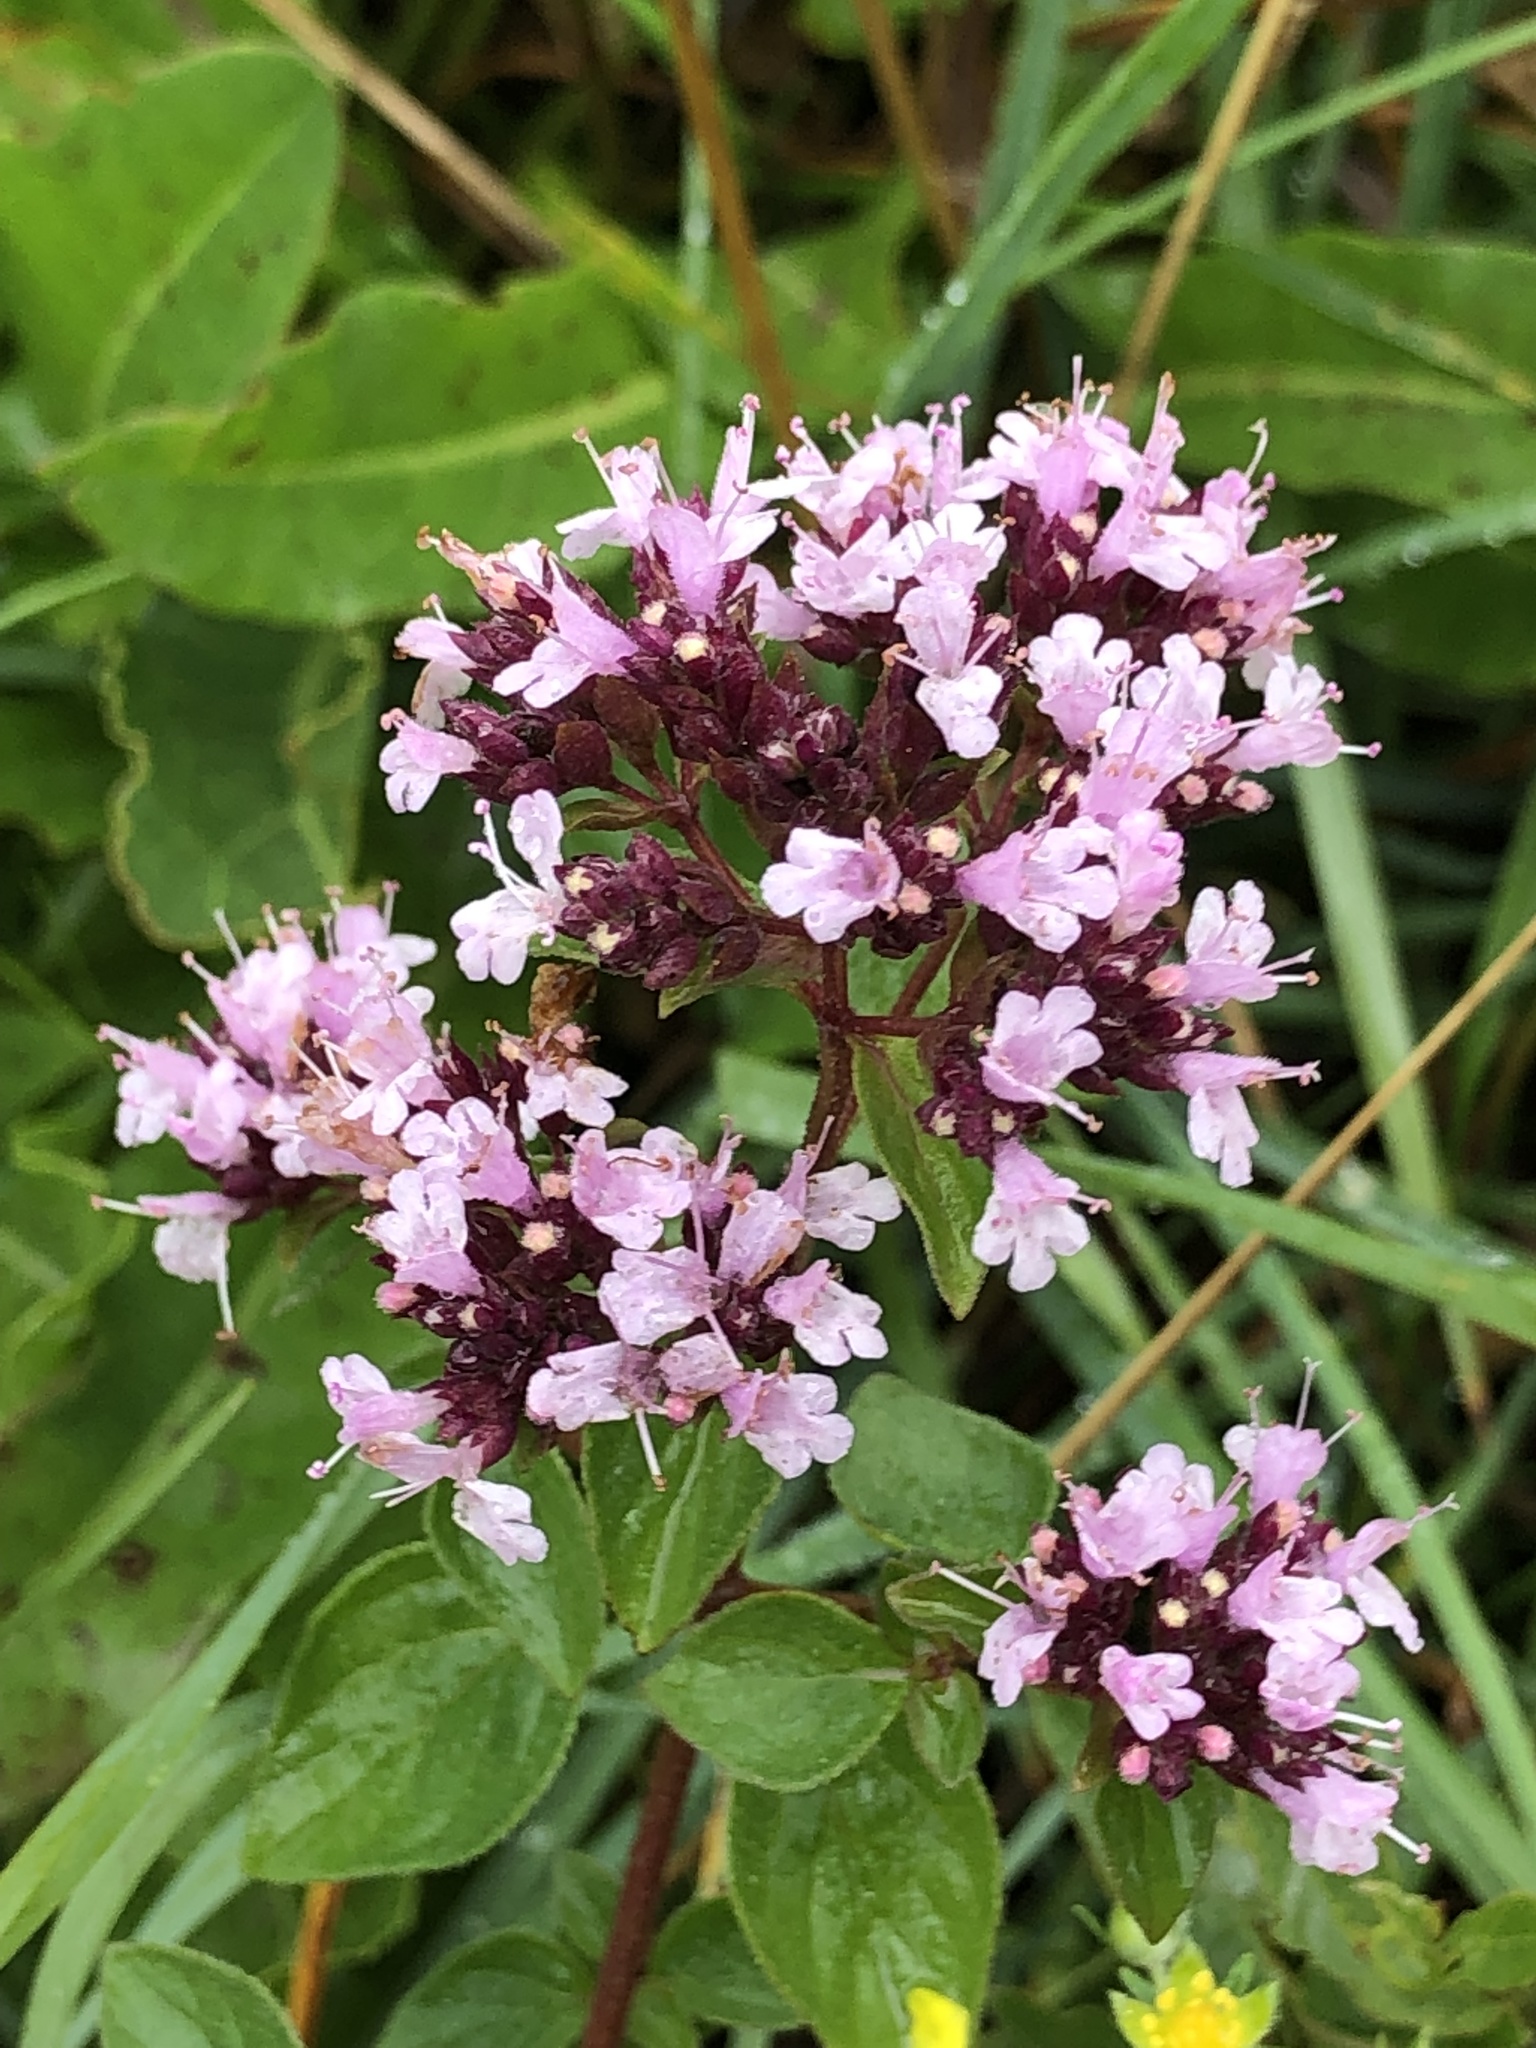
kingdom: Plantae
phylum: Tracheophyta
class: Magnoliopsida
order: Lamiales
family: Lamiaceae
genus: Origanum
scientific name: Origanum vulgare
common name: Wild marjoram
